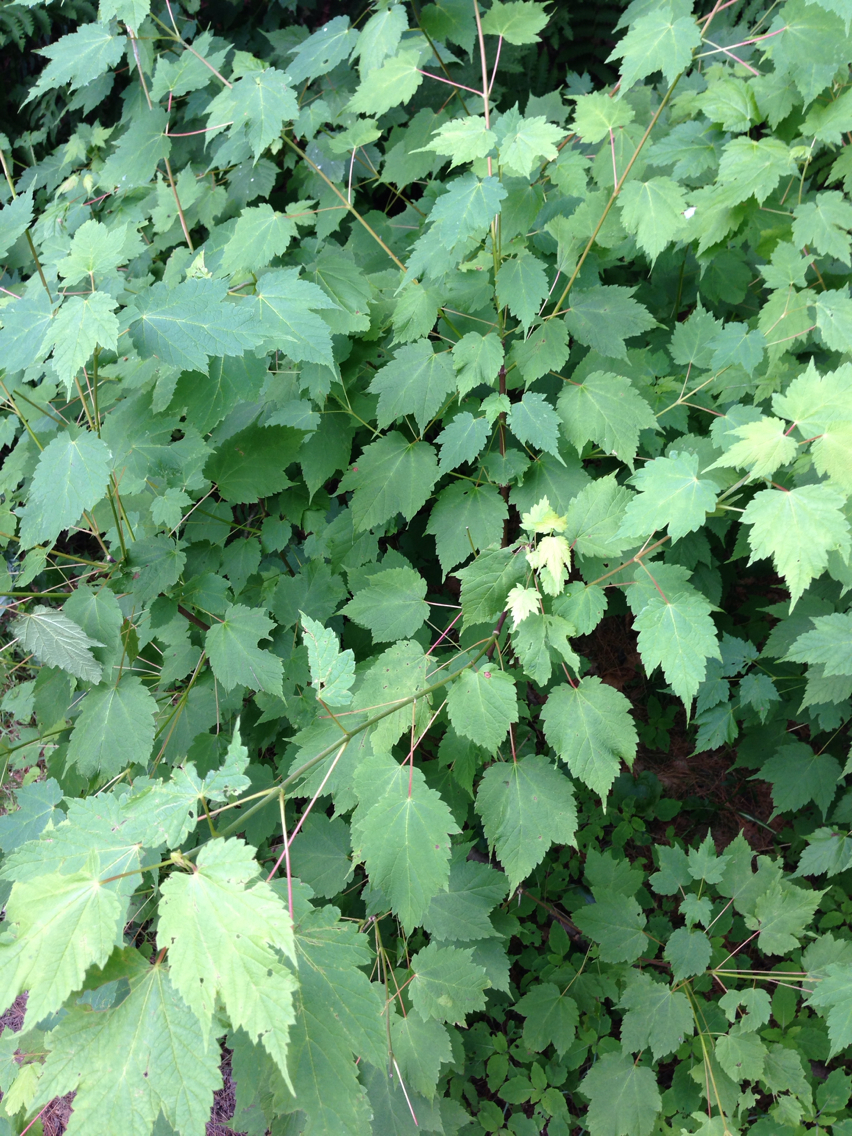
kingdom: Plantae
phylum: Tracheophyta
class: Magnoliopsida
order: Sapindales
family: Sapindaceae
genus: Acer
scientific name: Acer spicatum
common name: Mountain maple
